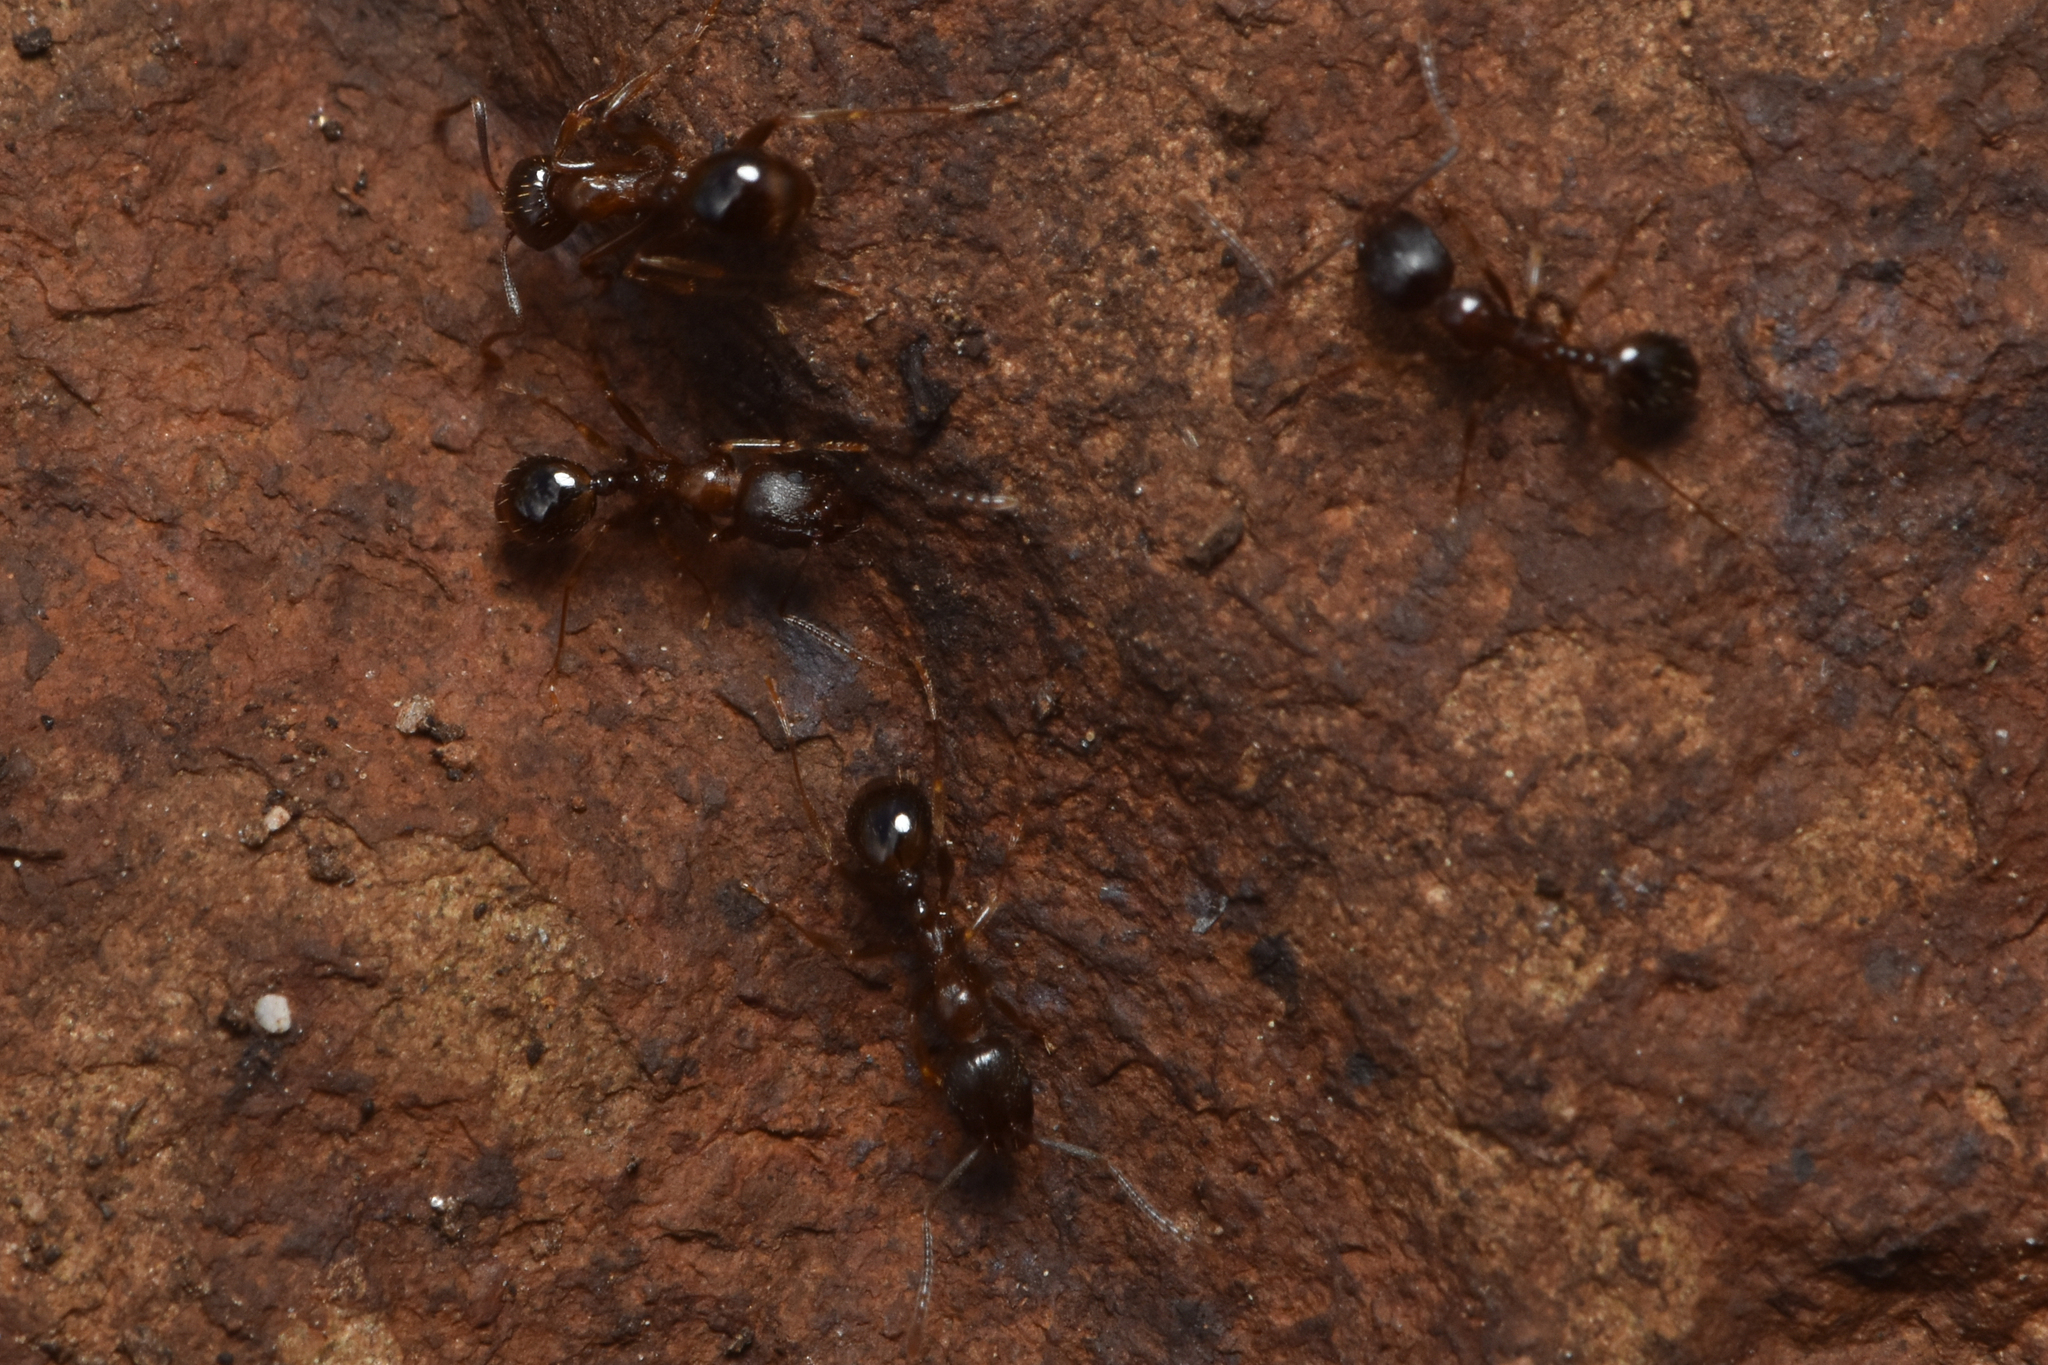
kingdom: Animalia
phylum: Arthropoda
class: Insecta
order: Hymenoptera
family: Formicidae
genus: Aphaenogaster
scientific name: Aphaenogaster occidentalis
